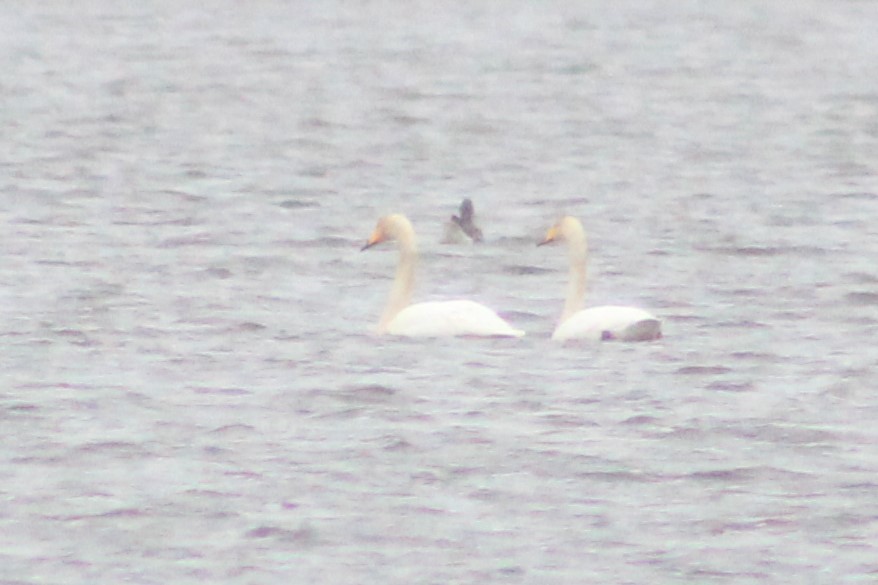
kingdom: Animalia
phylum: Chordata
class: Aves
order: Anseriformes
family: Anatidae
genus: Cygnus
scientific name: Cygnus cygnus
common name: Whooper swan
